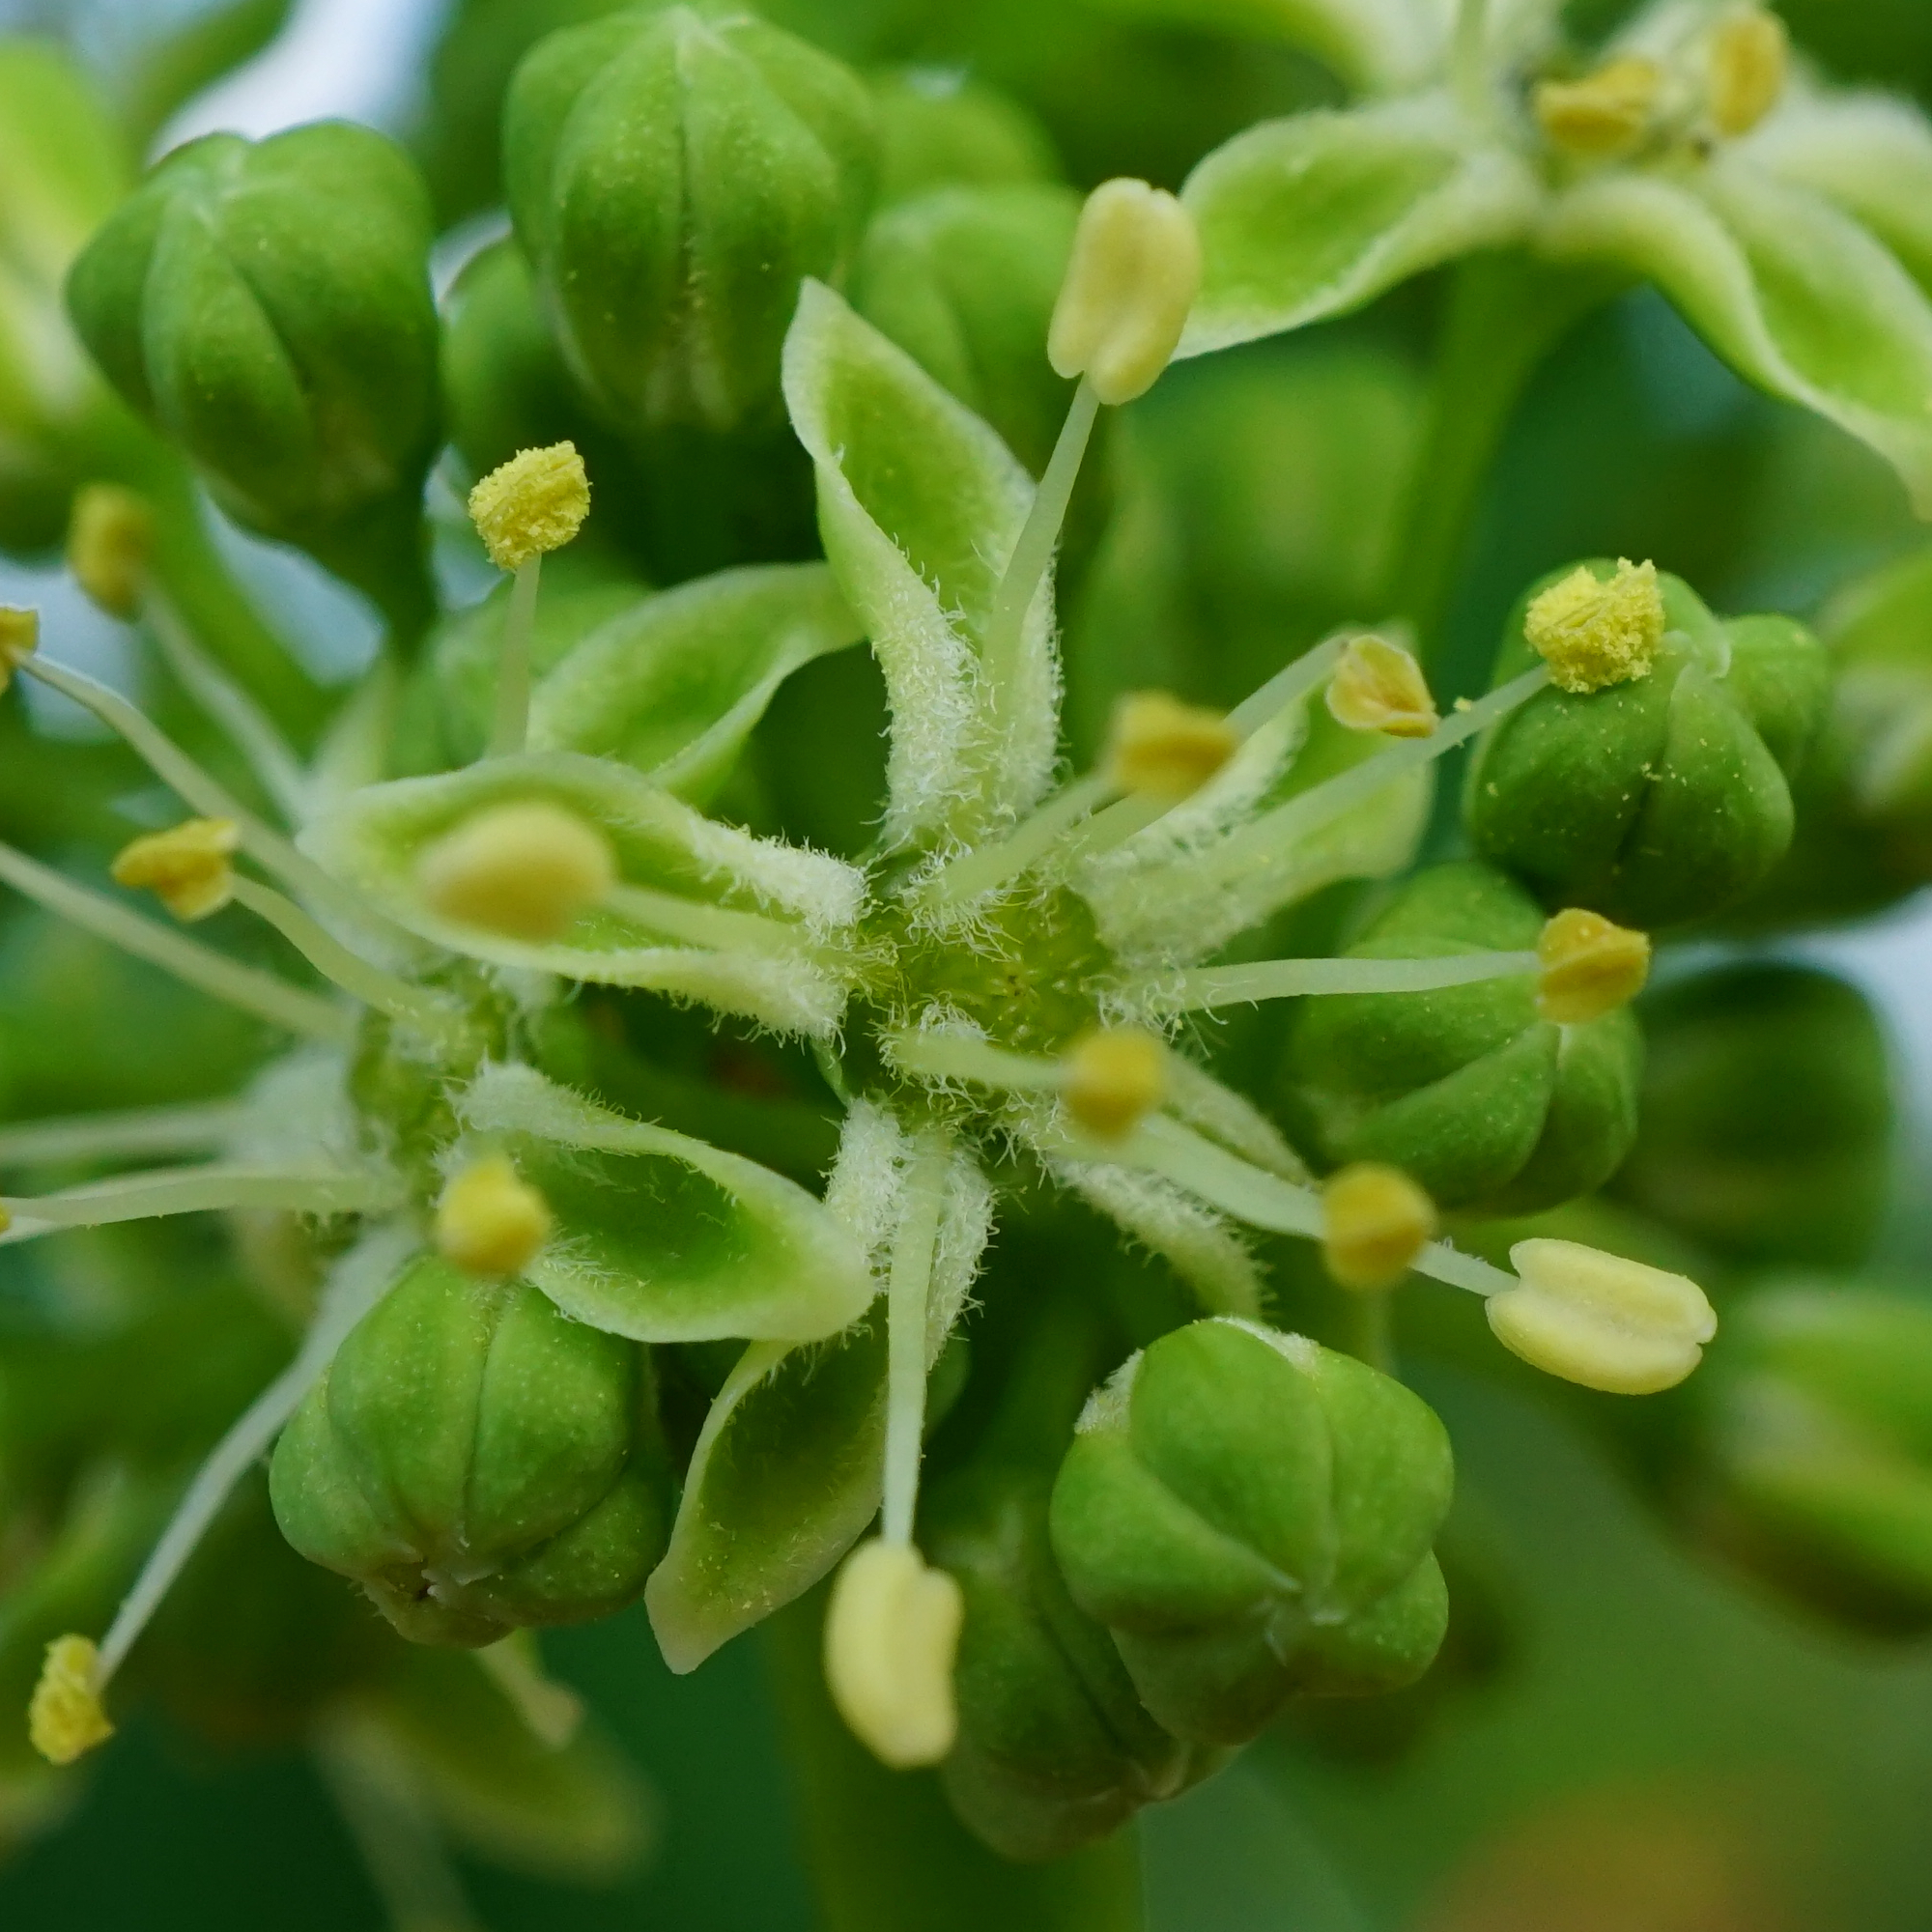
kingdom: Plantae
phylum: Tracheophyta
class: Magnoliopsida
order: Sapindales
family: Simaroubaceae
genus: Ailanthus
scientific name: Ailanthus altissima
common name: Tree-of-heaven
